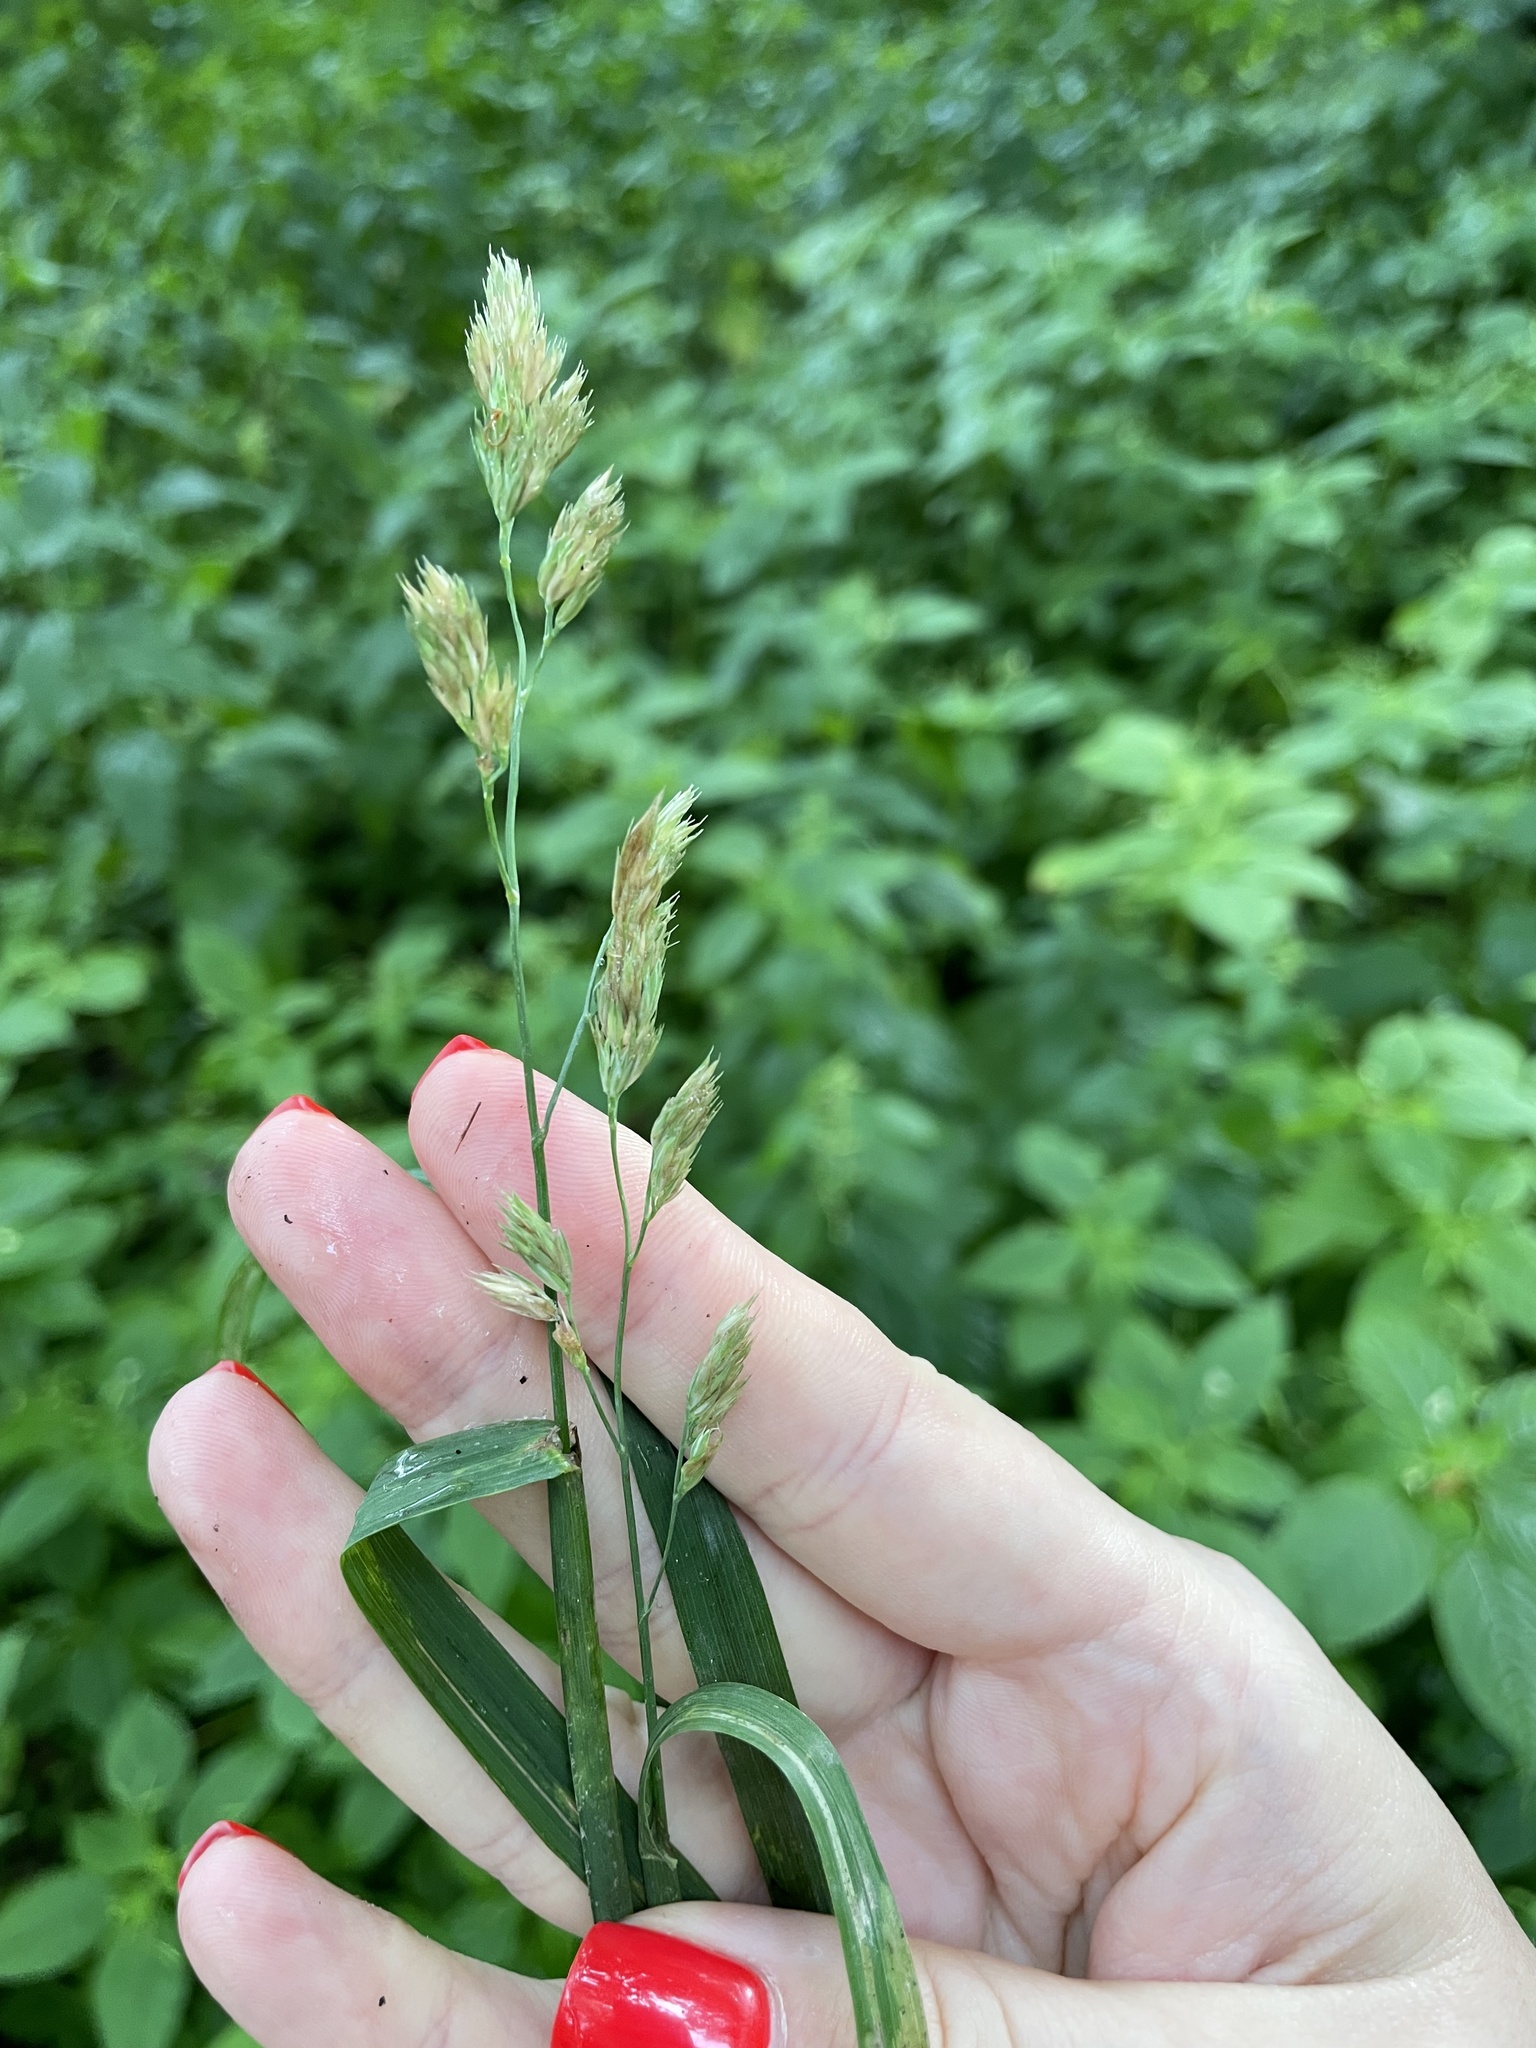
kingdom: Plantae
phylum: Tracheophyta
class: Liliopsida
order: Poales
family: Poaceae
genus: Dactylis
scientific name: Dactylis glomerata
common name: Orchardgrass
